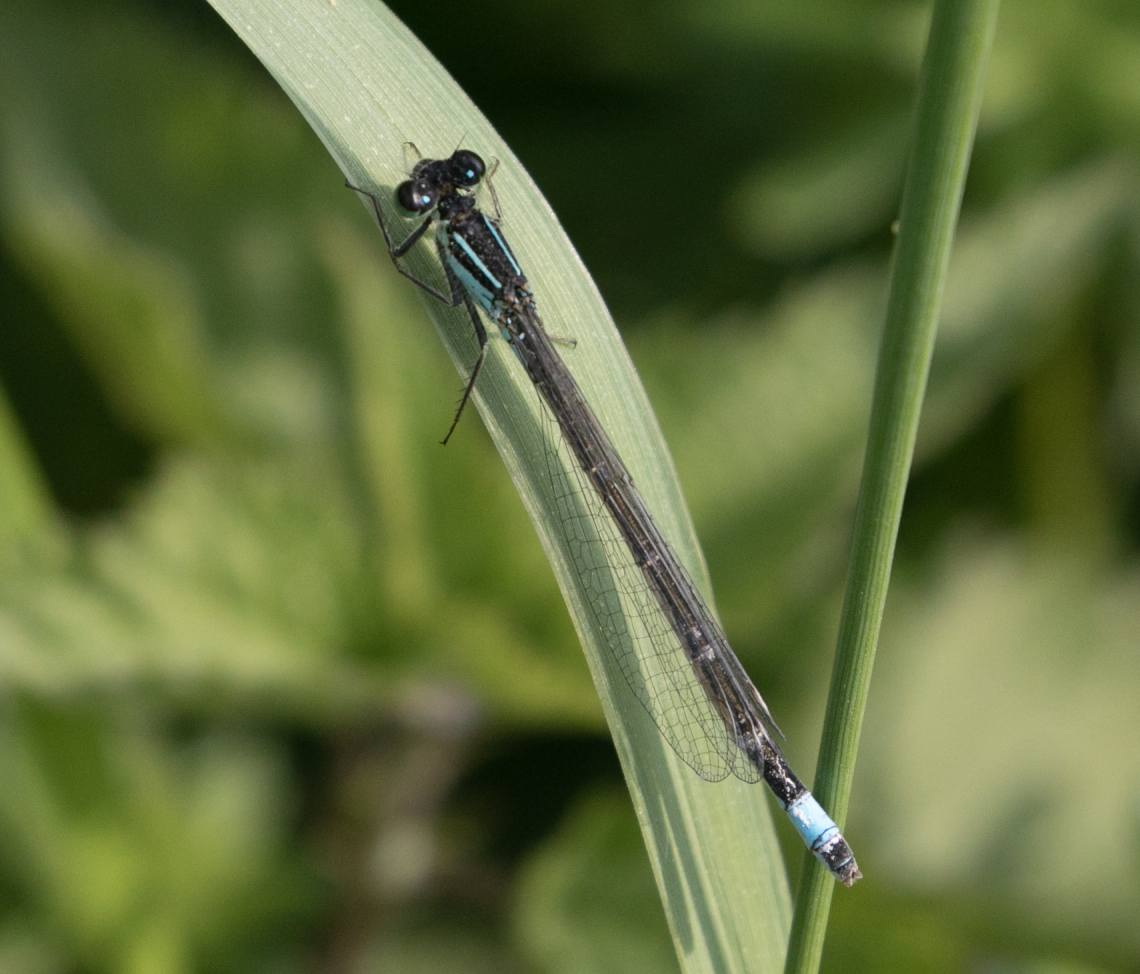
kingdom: Animalia
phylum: Arthropoda
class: Insecta
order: Odonata
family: Coenagrionidae
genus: Ischnura
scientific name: Ischnura elegans
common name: Blue-tailed damselfly
